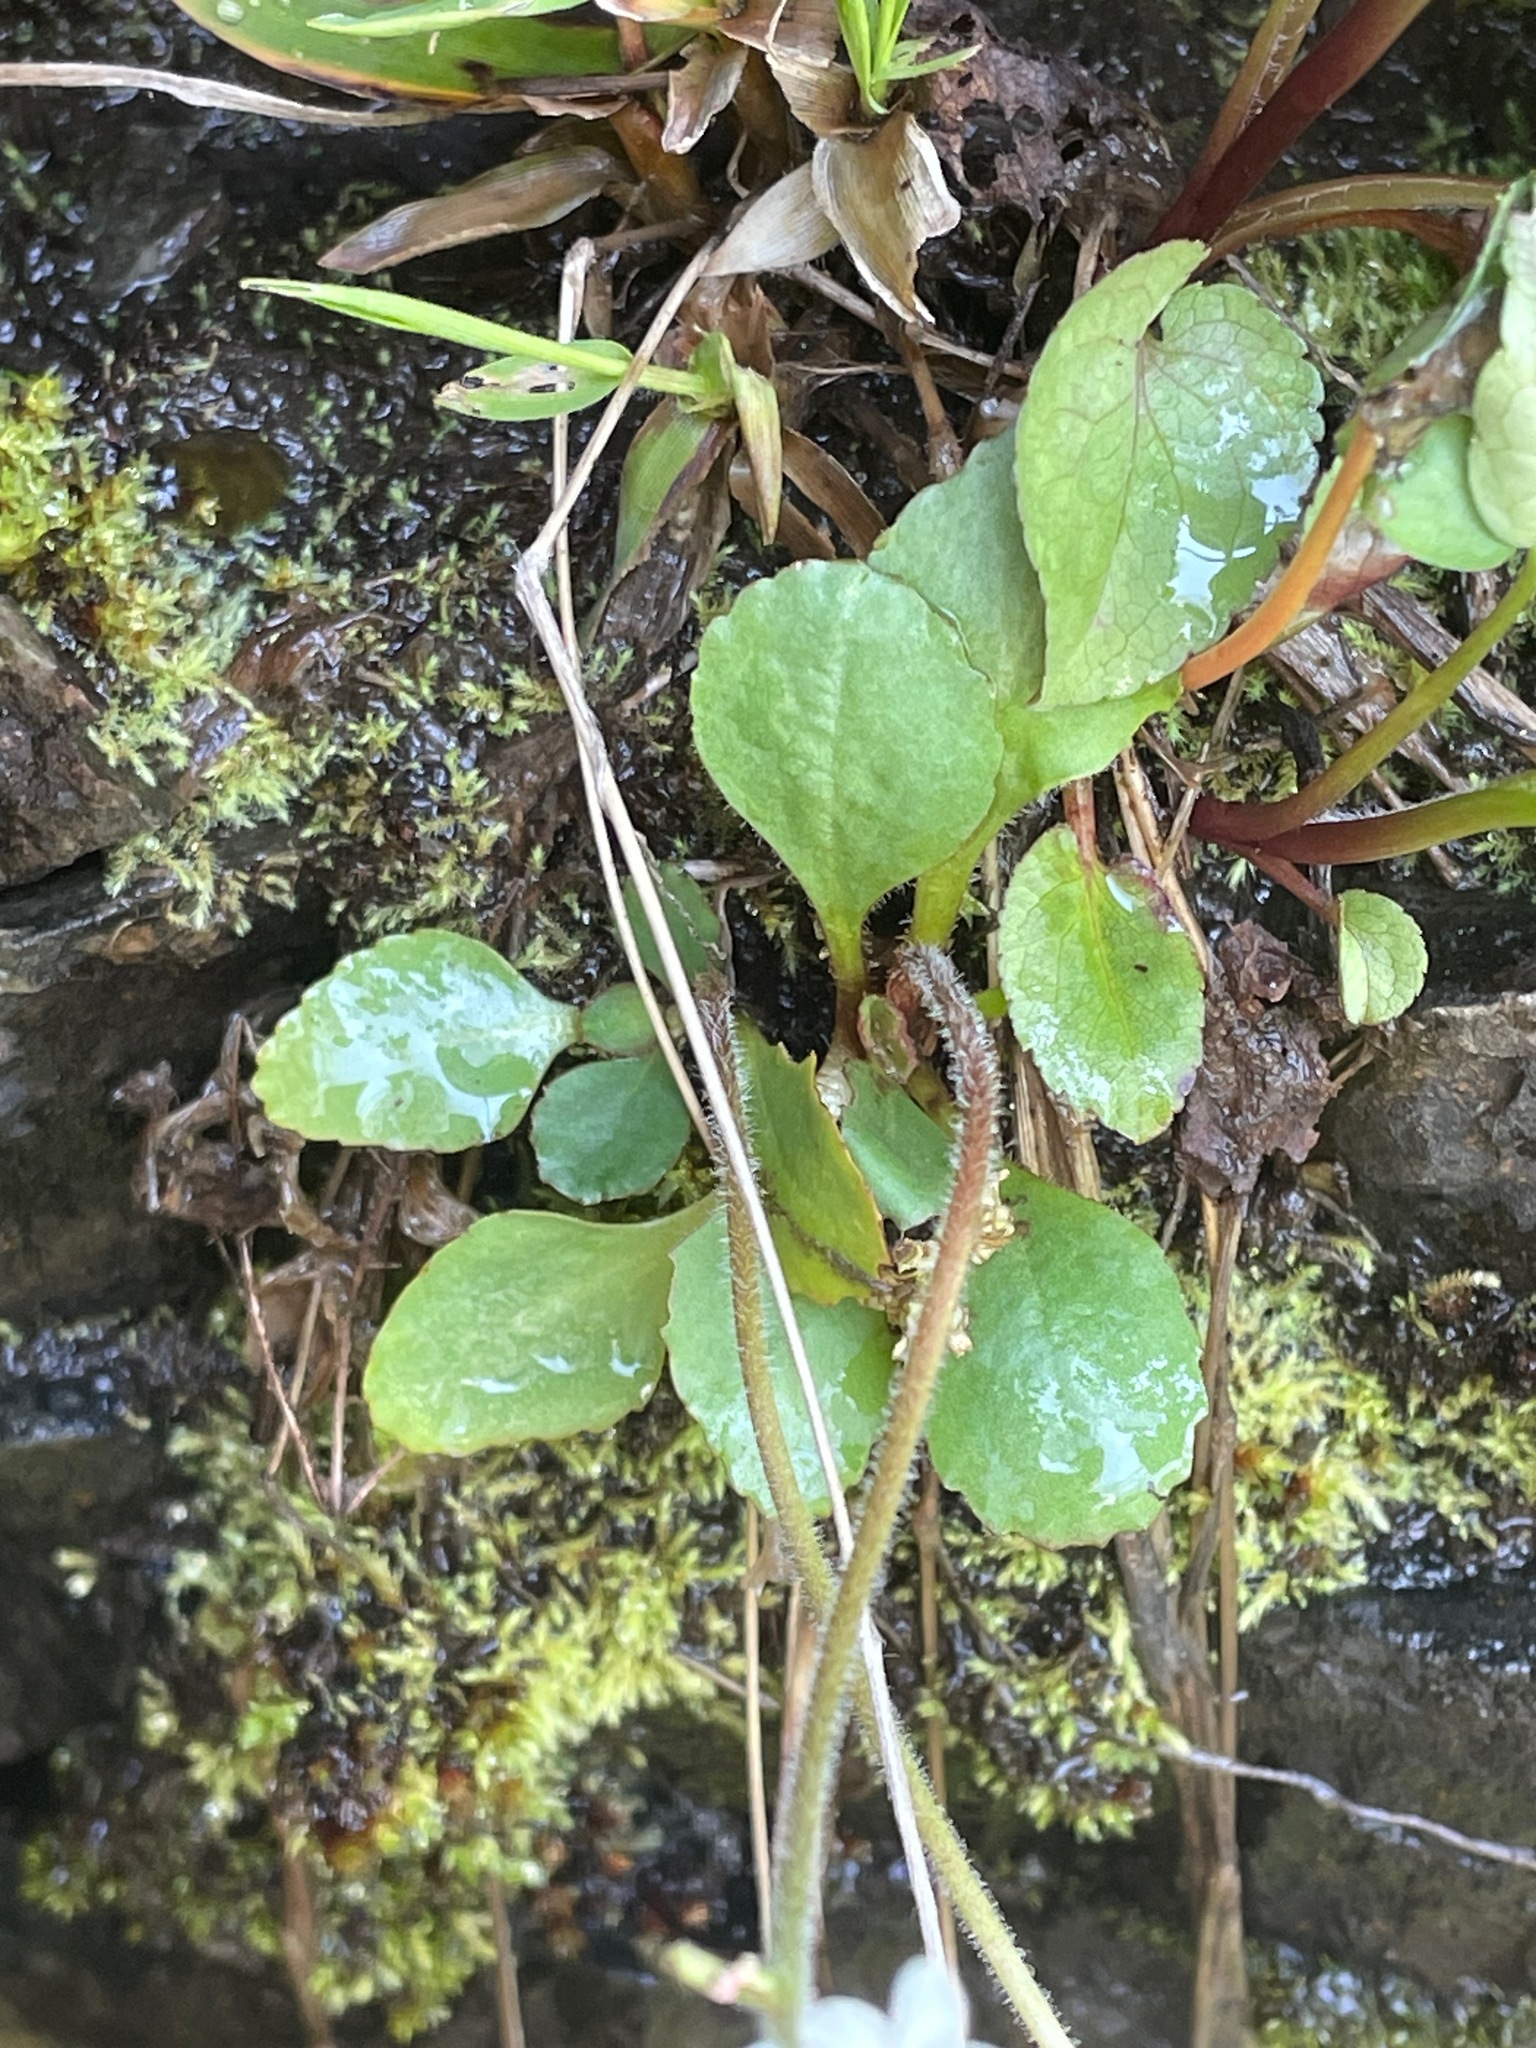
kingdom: Plantae
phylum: Tracheophyta
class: Magnoliopsida
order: Saxifragales
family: Saxifragaceae
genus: Micranthes
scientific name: Micranthes virginiensis
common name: Early saxifrage
